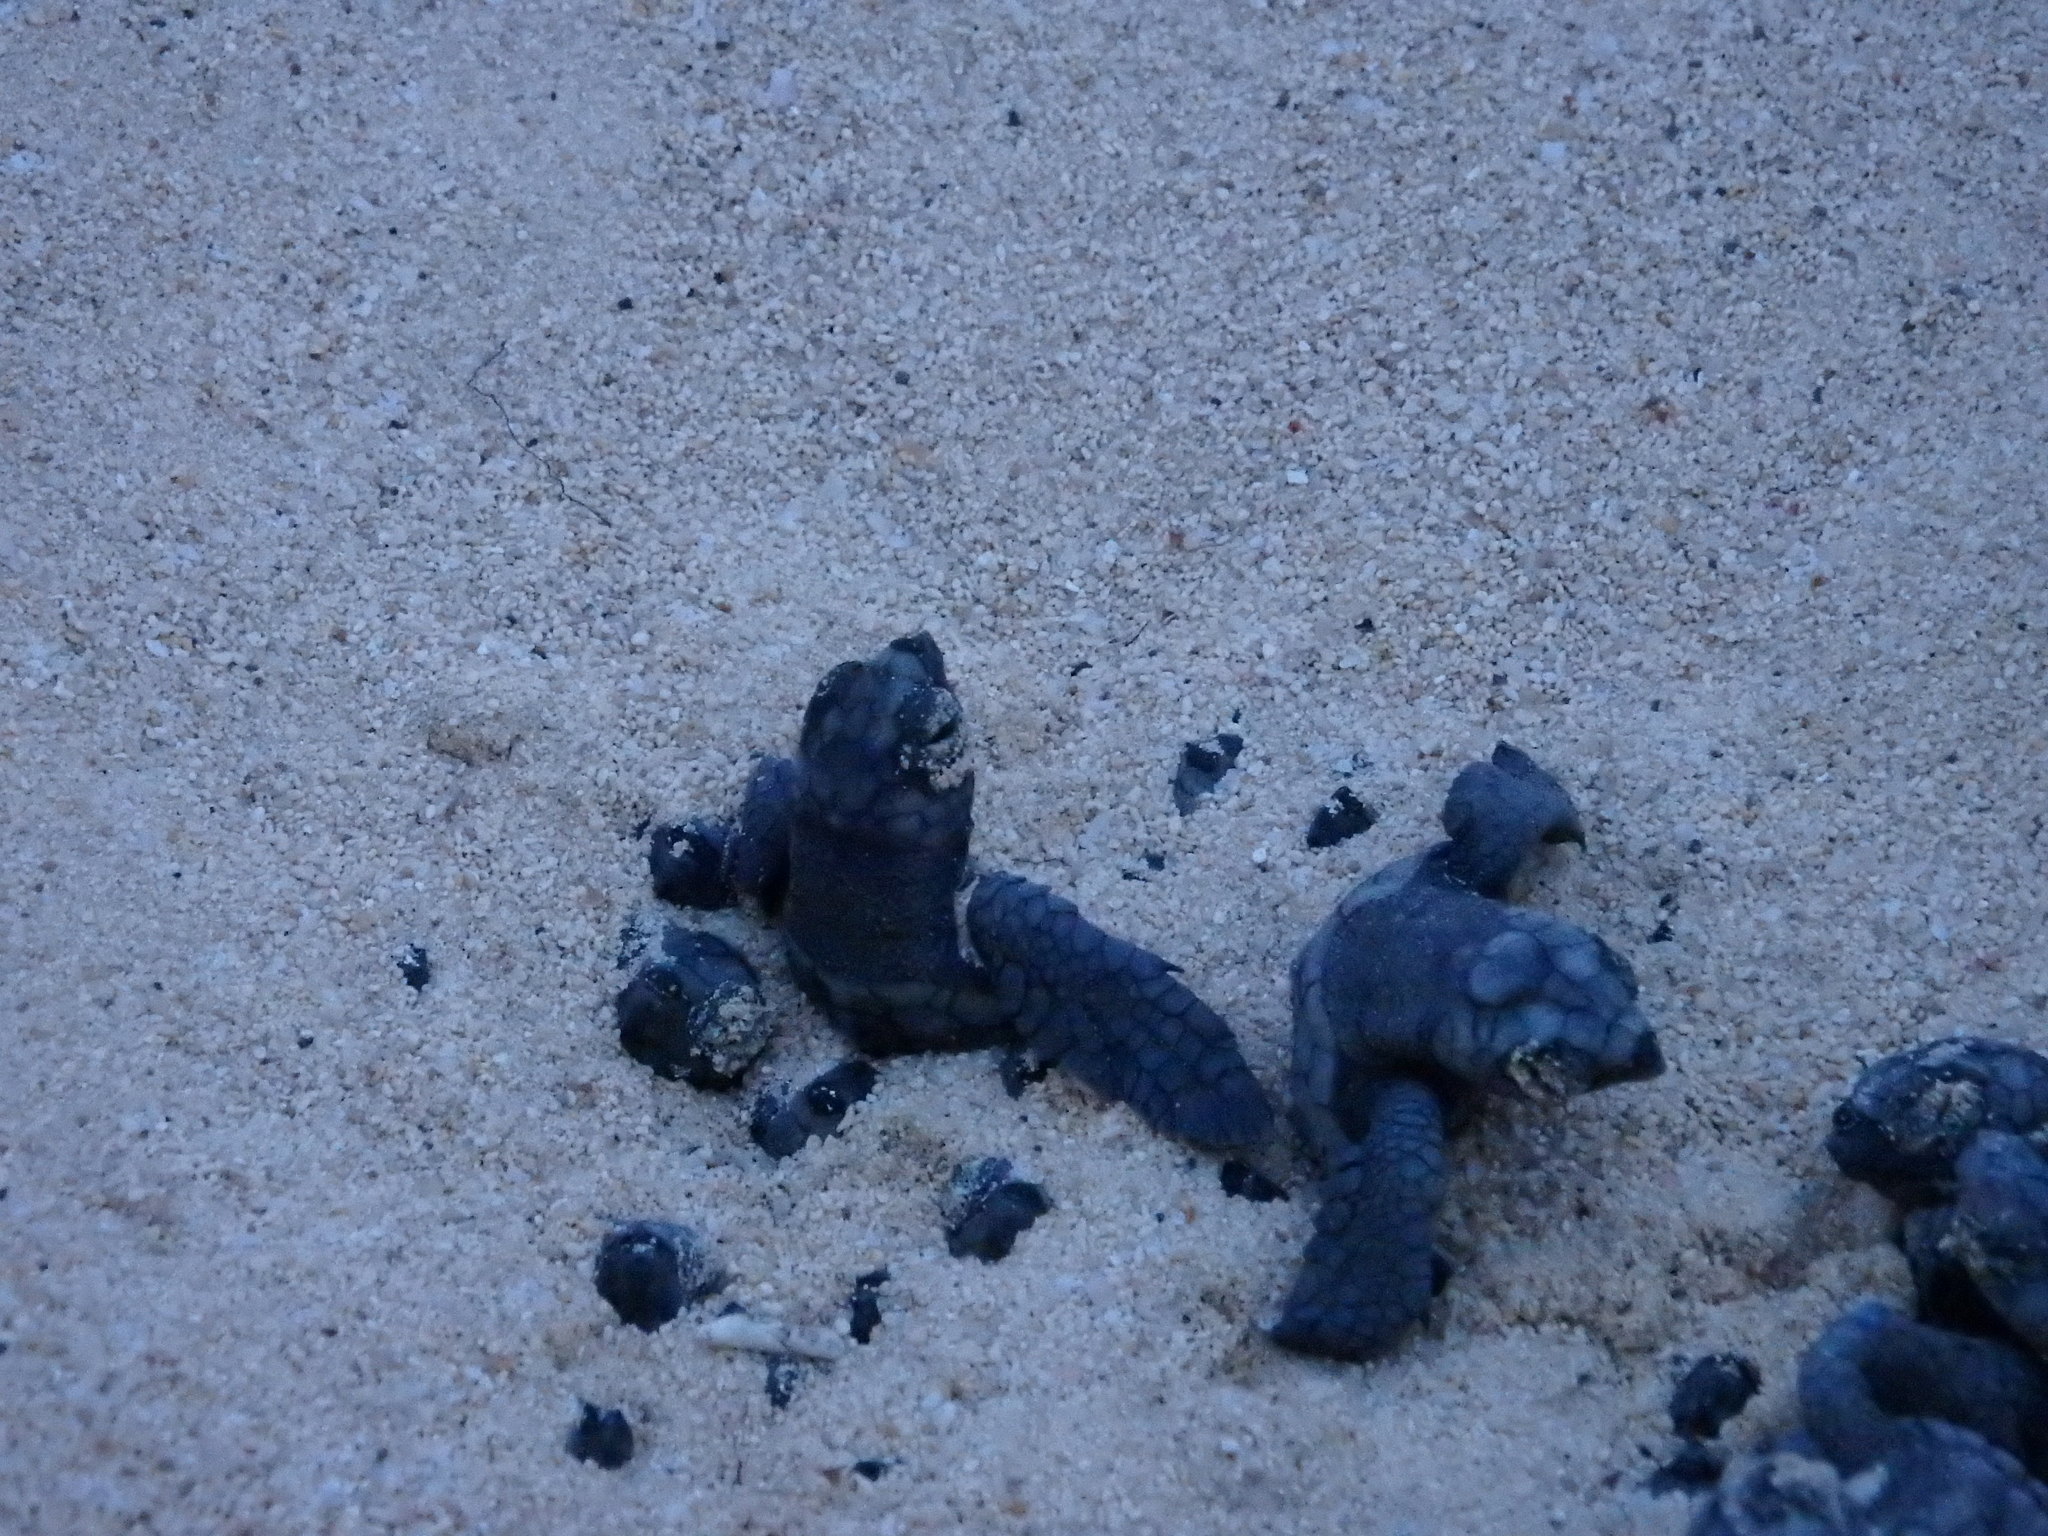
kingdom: Animalia
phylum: Chordata
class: Testudines
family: Cheloniidae
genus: Caretta
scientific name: Caretta caretta
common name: Loggerhead sea turtle
